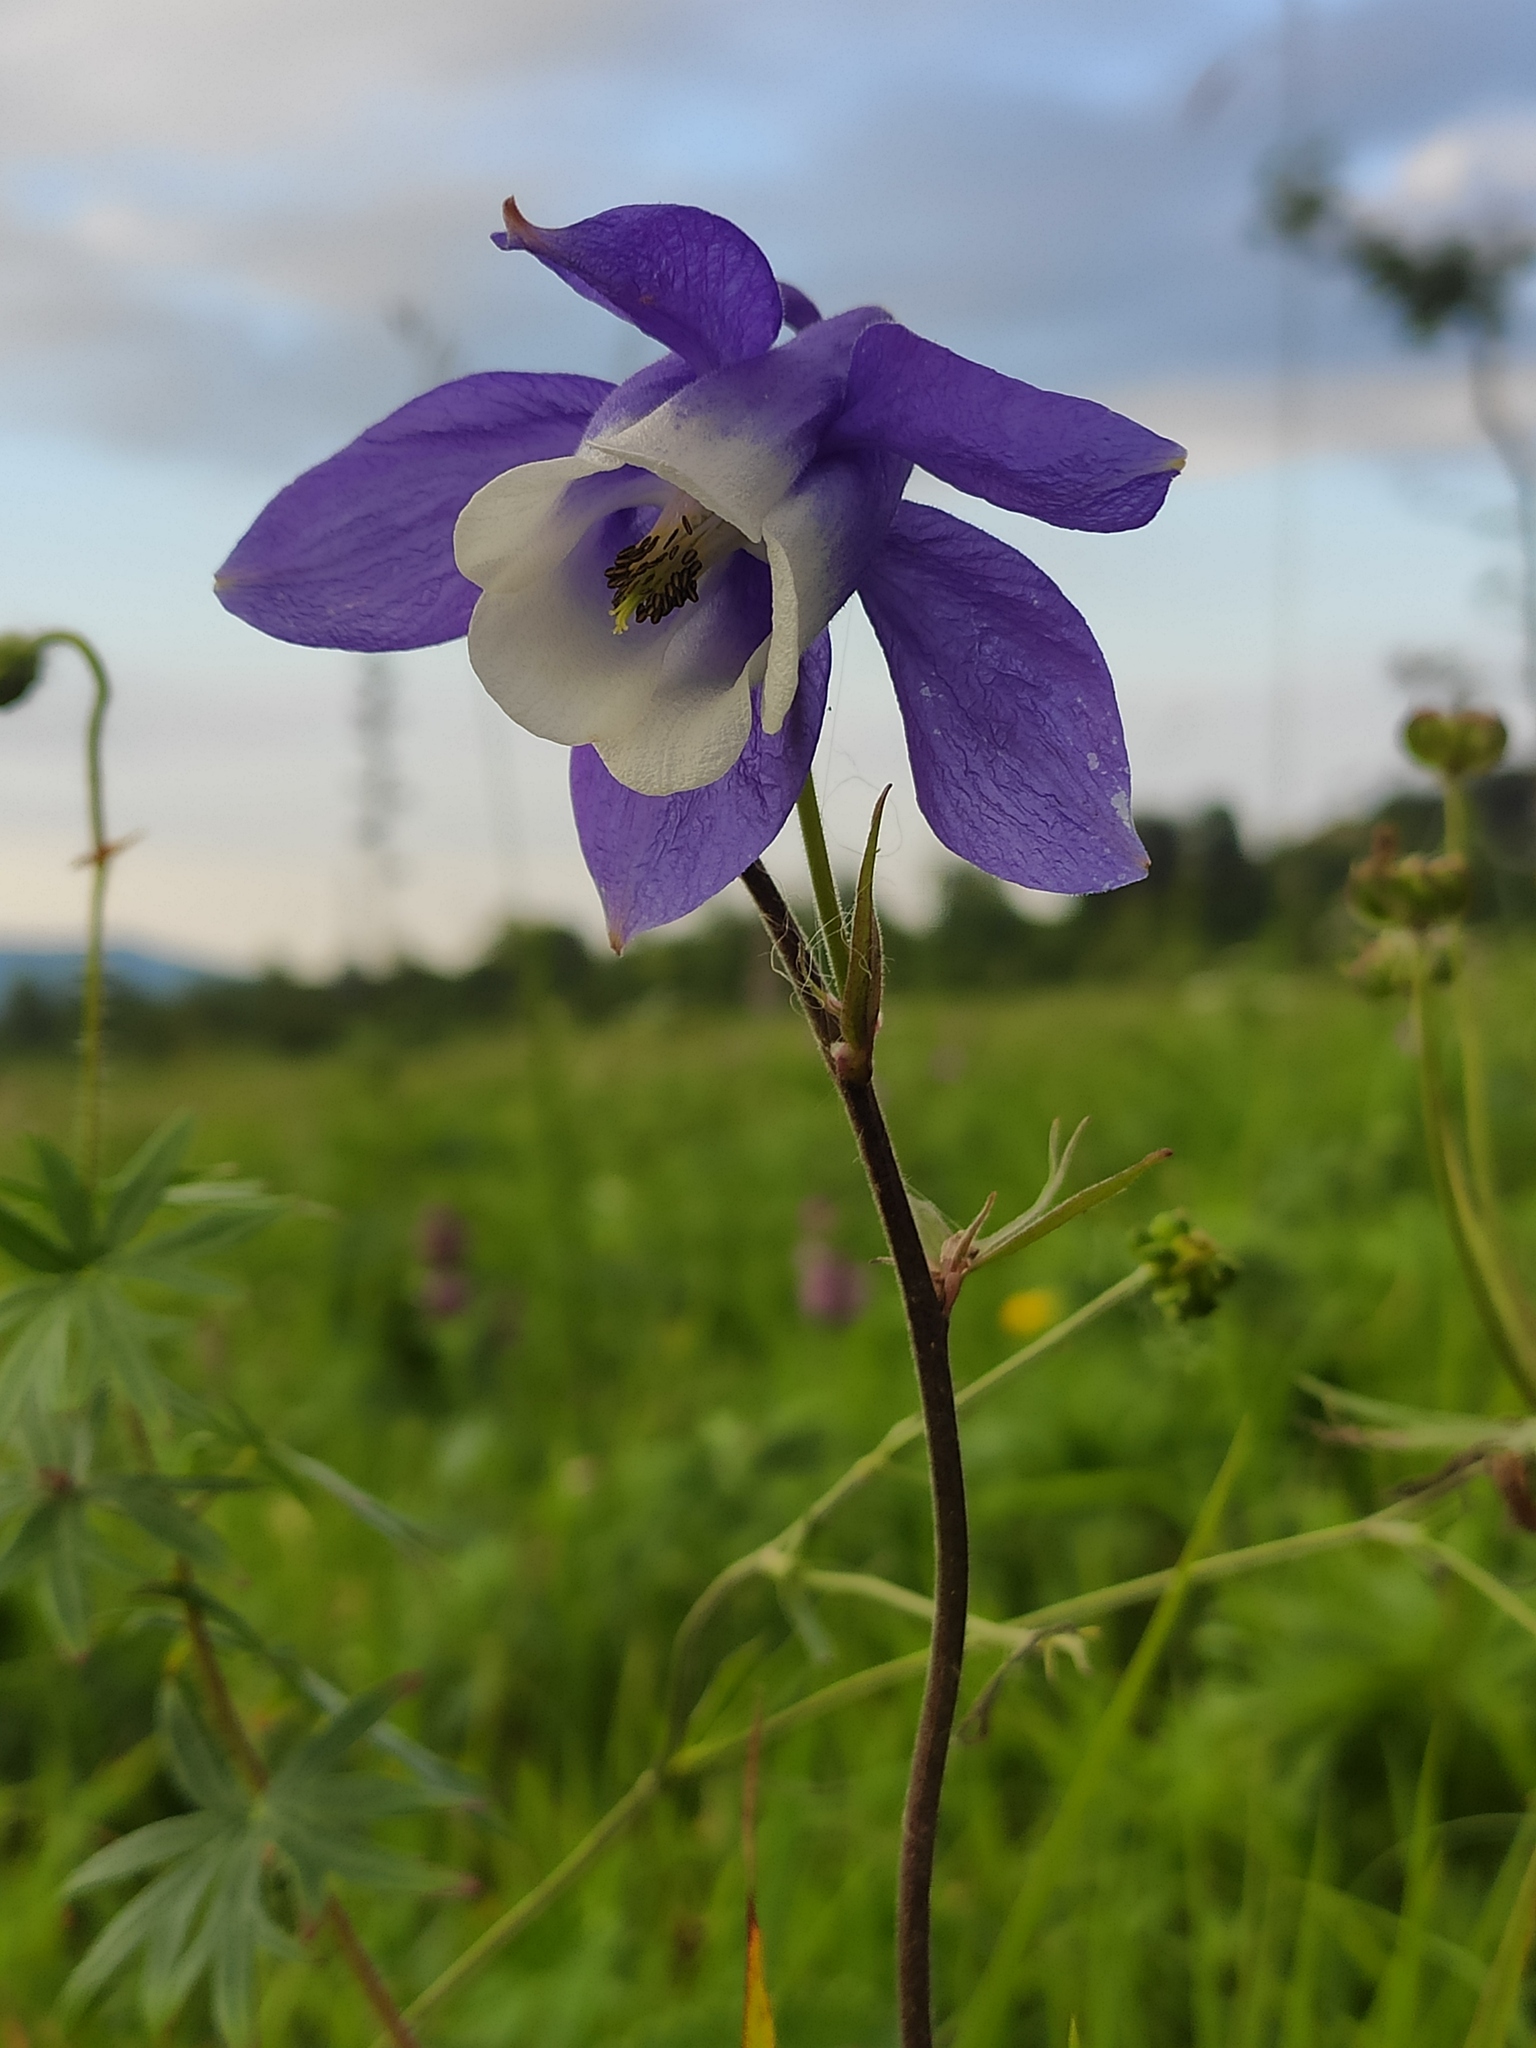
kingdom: Plantae
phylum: Tracheophyta
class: Magnoliopsida
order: Ranunculales
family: Ranunculaceae
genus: Aquilegia
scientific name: Aquilegia olympica
